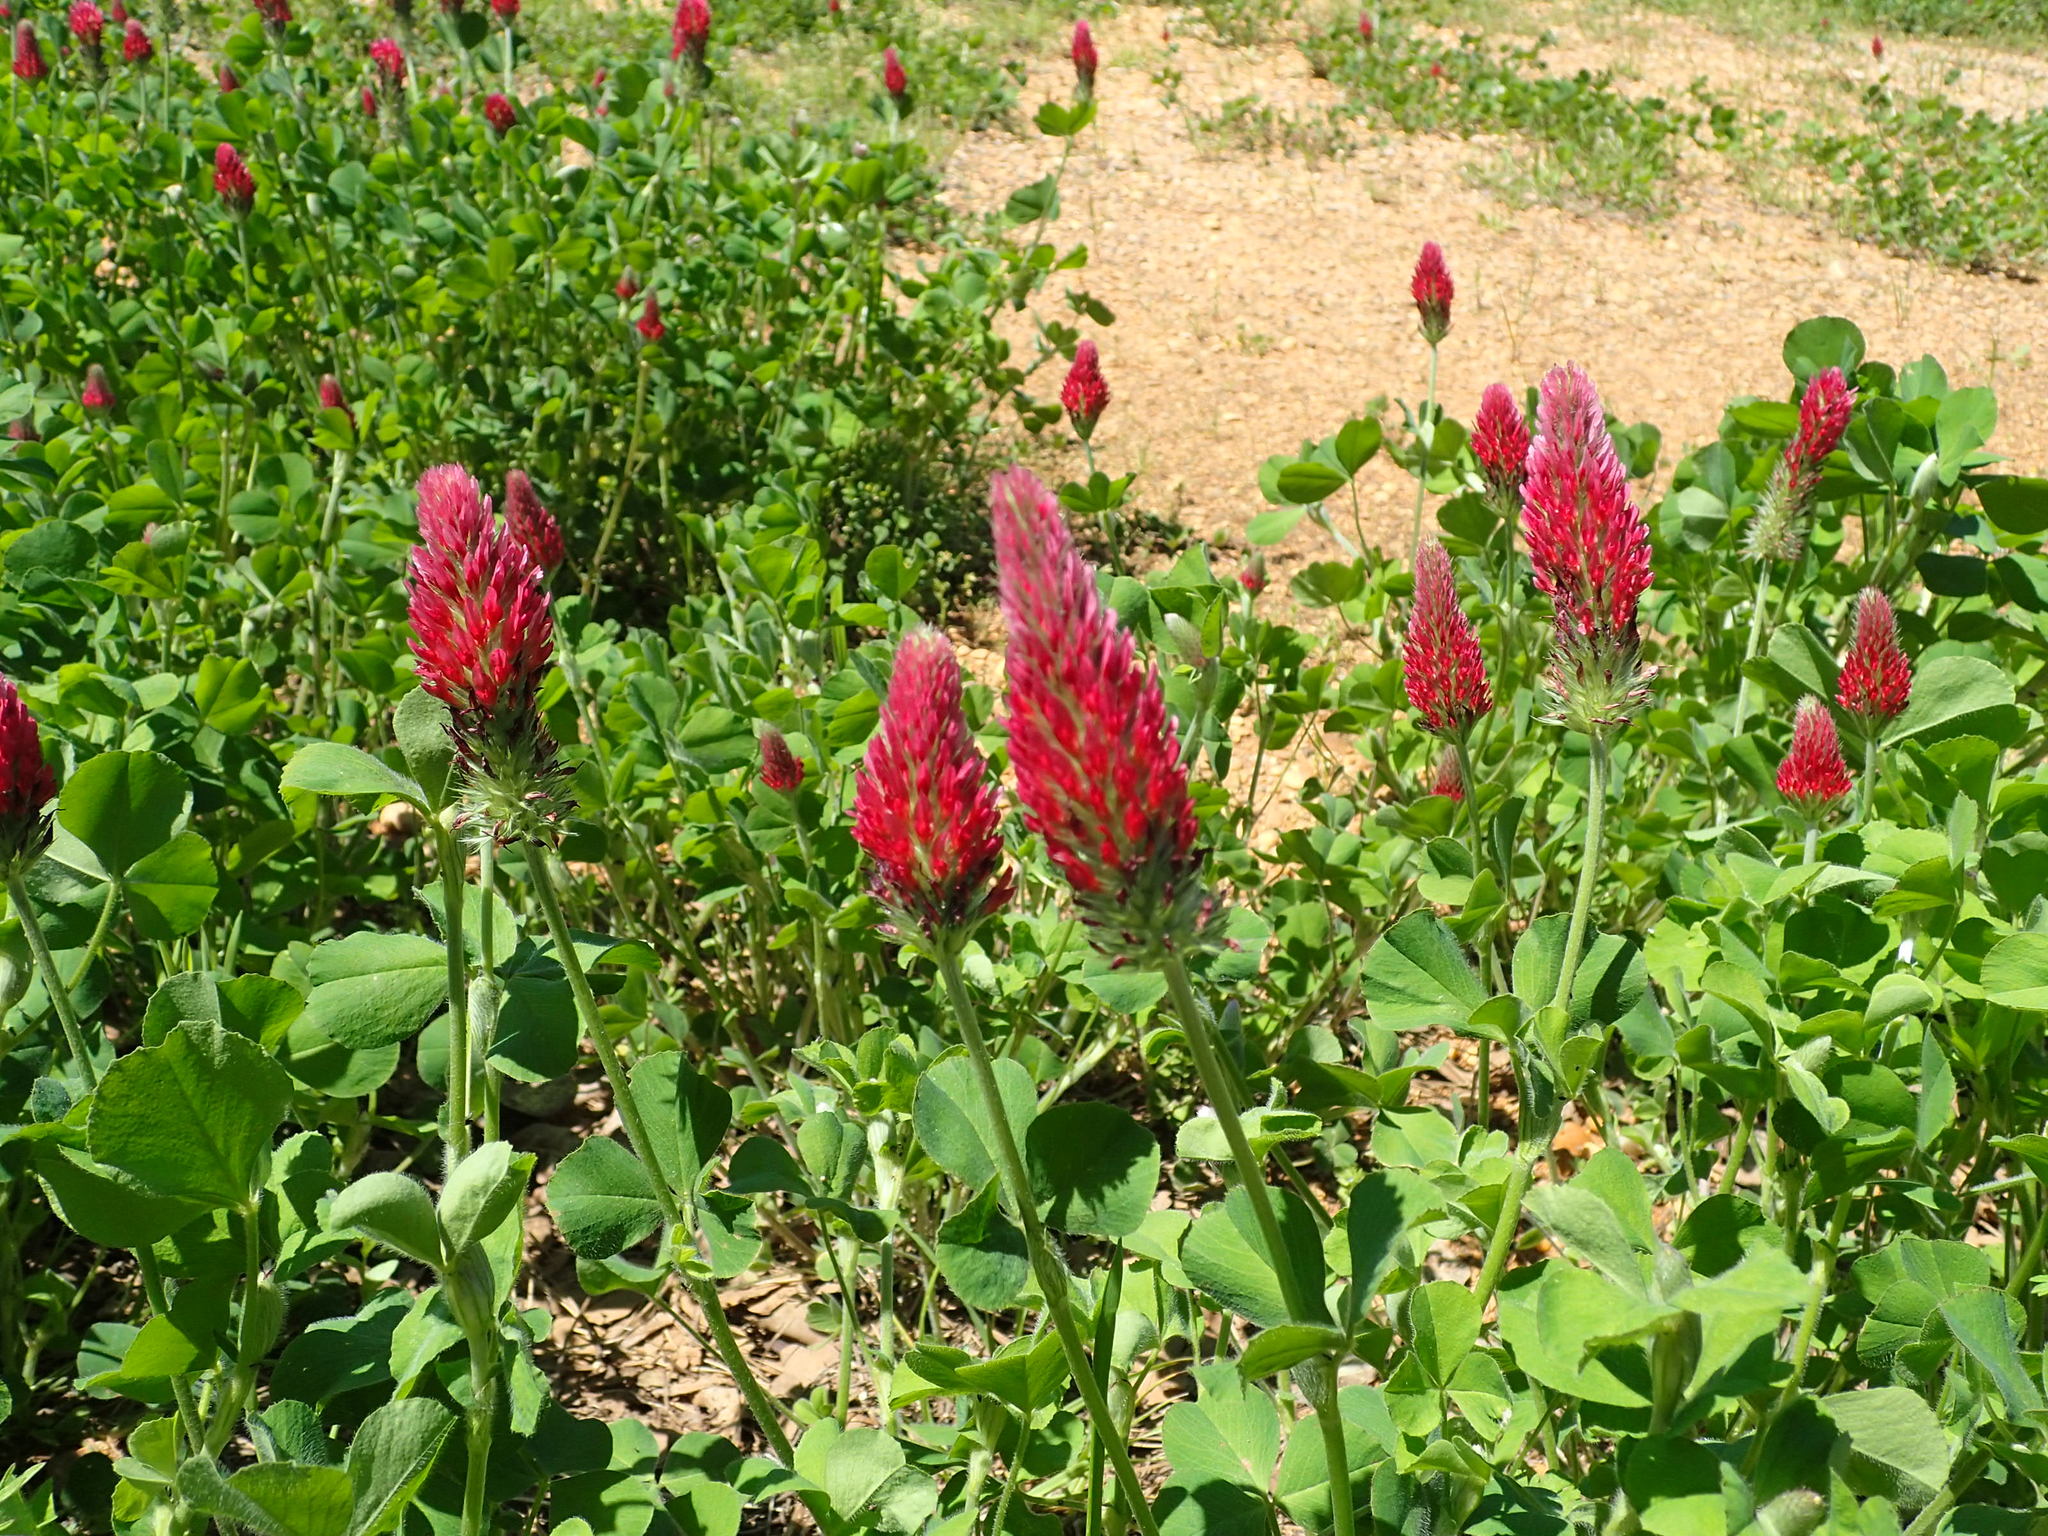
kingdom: Plantae
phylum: Tracheophyta
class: Magnoliopsida
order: Fabales
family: Fabaceae
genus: Trifolium
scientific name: Trifolium incarnatum
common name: Crimson clover
